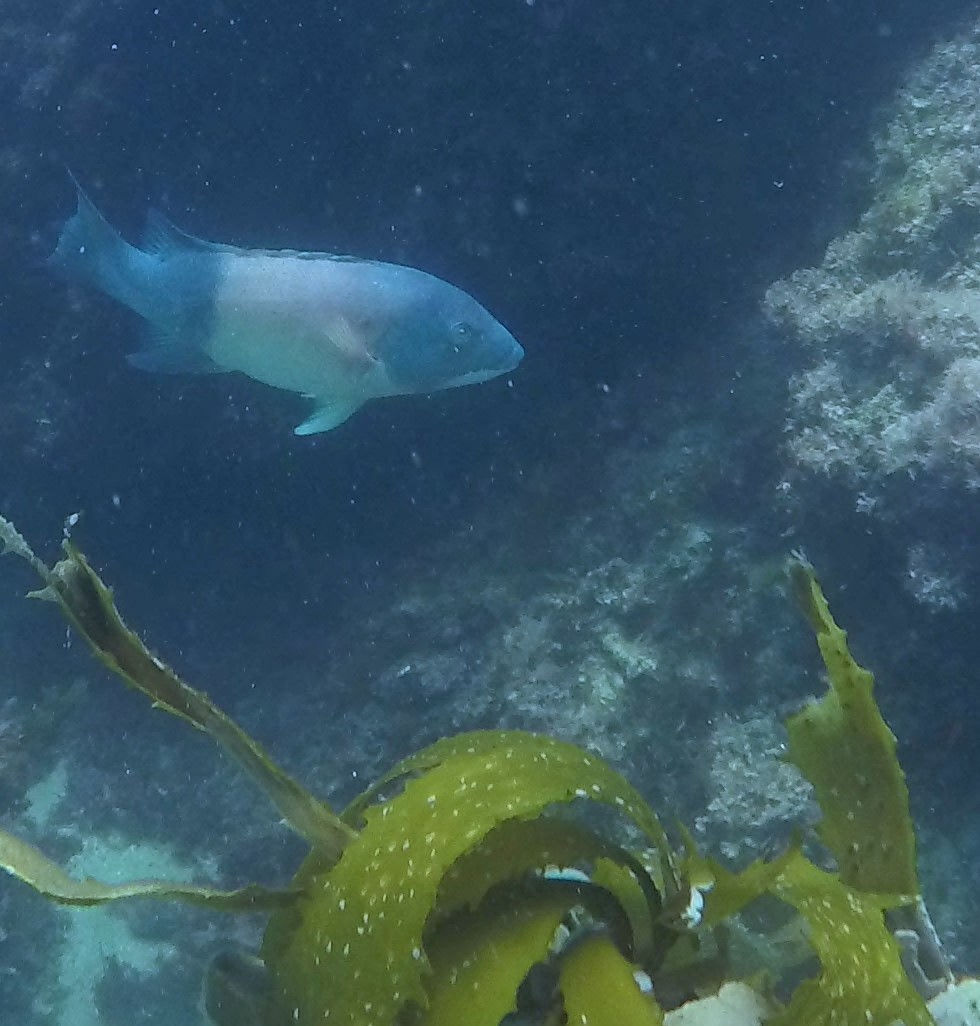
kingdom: Animalia
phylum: Chordata
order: Perciformes
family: Labridae
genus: Semicossyphus
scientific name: Semicossyphus pulcher
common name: California sheephead
